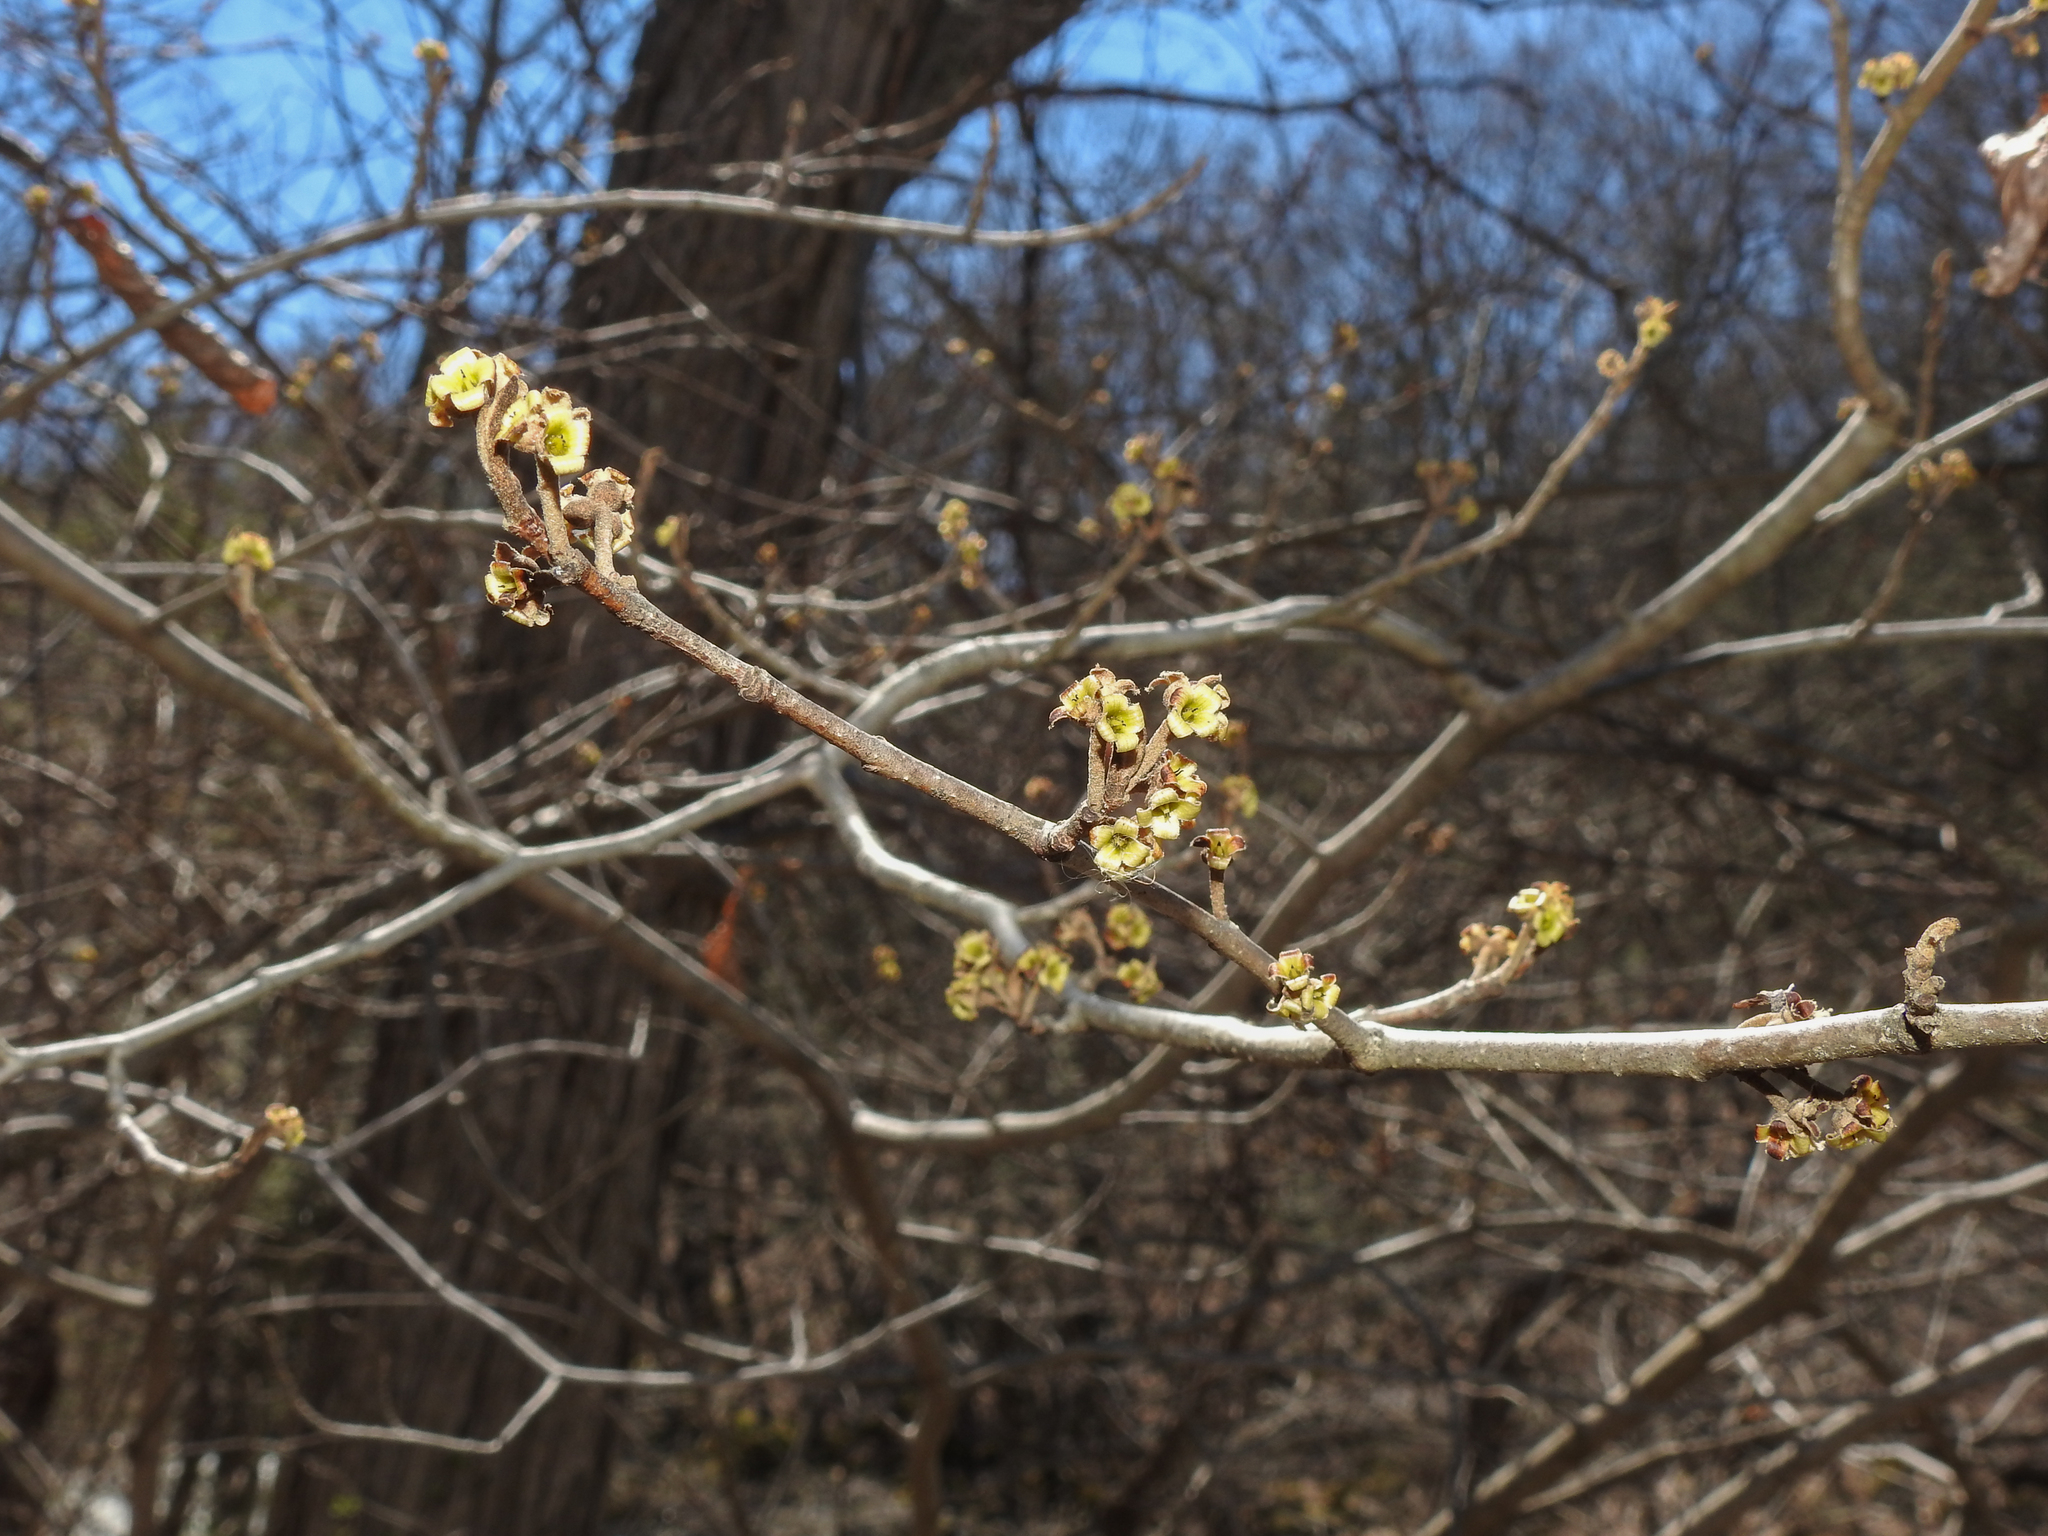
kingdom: Plantae
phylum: Tracheophyta
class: Magnoliopsida
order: Saxifragales
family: Hamamelidaceae
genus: Hamamelis
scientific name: Hamamelis virginiana
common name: Witch-hazel
